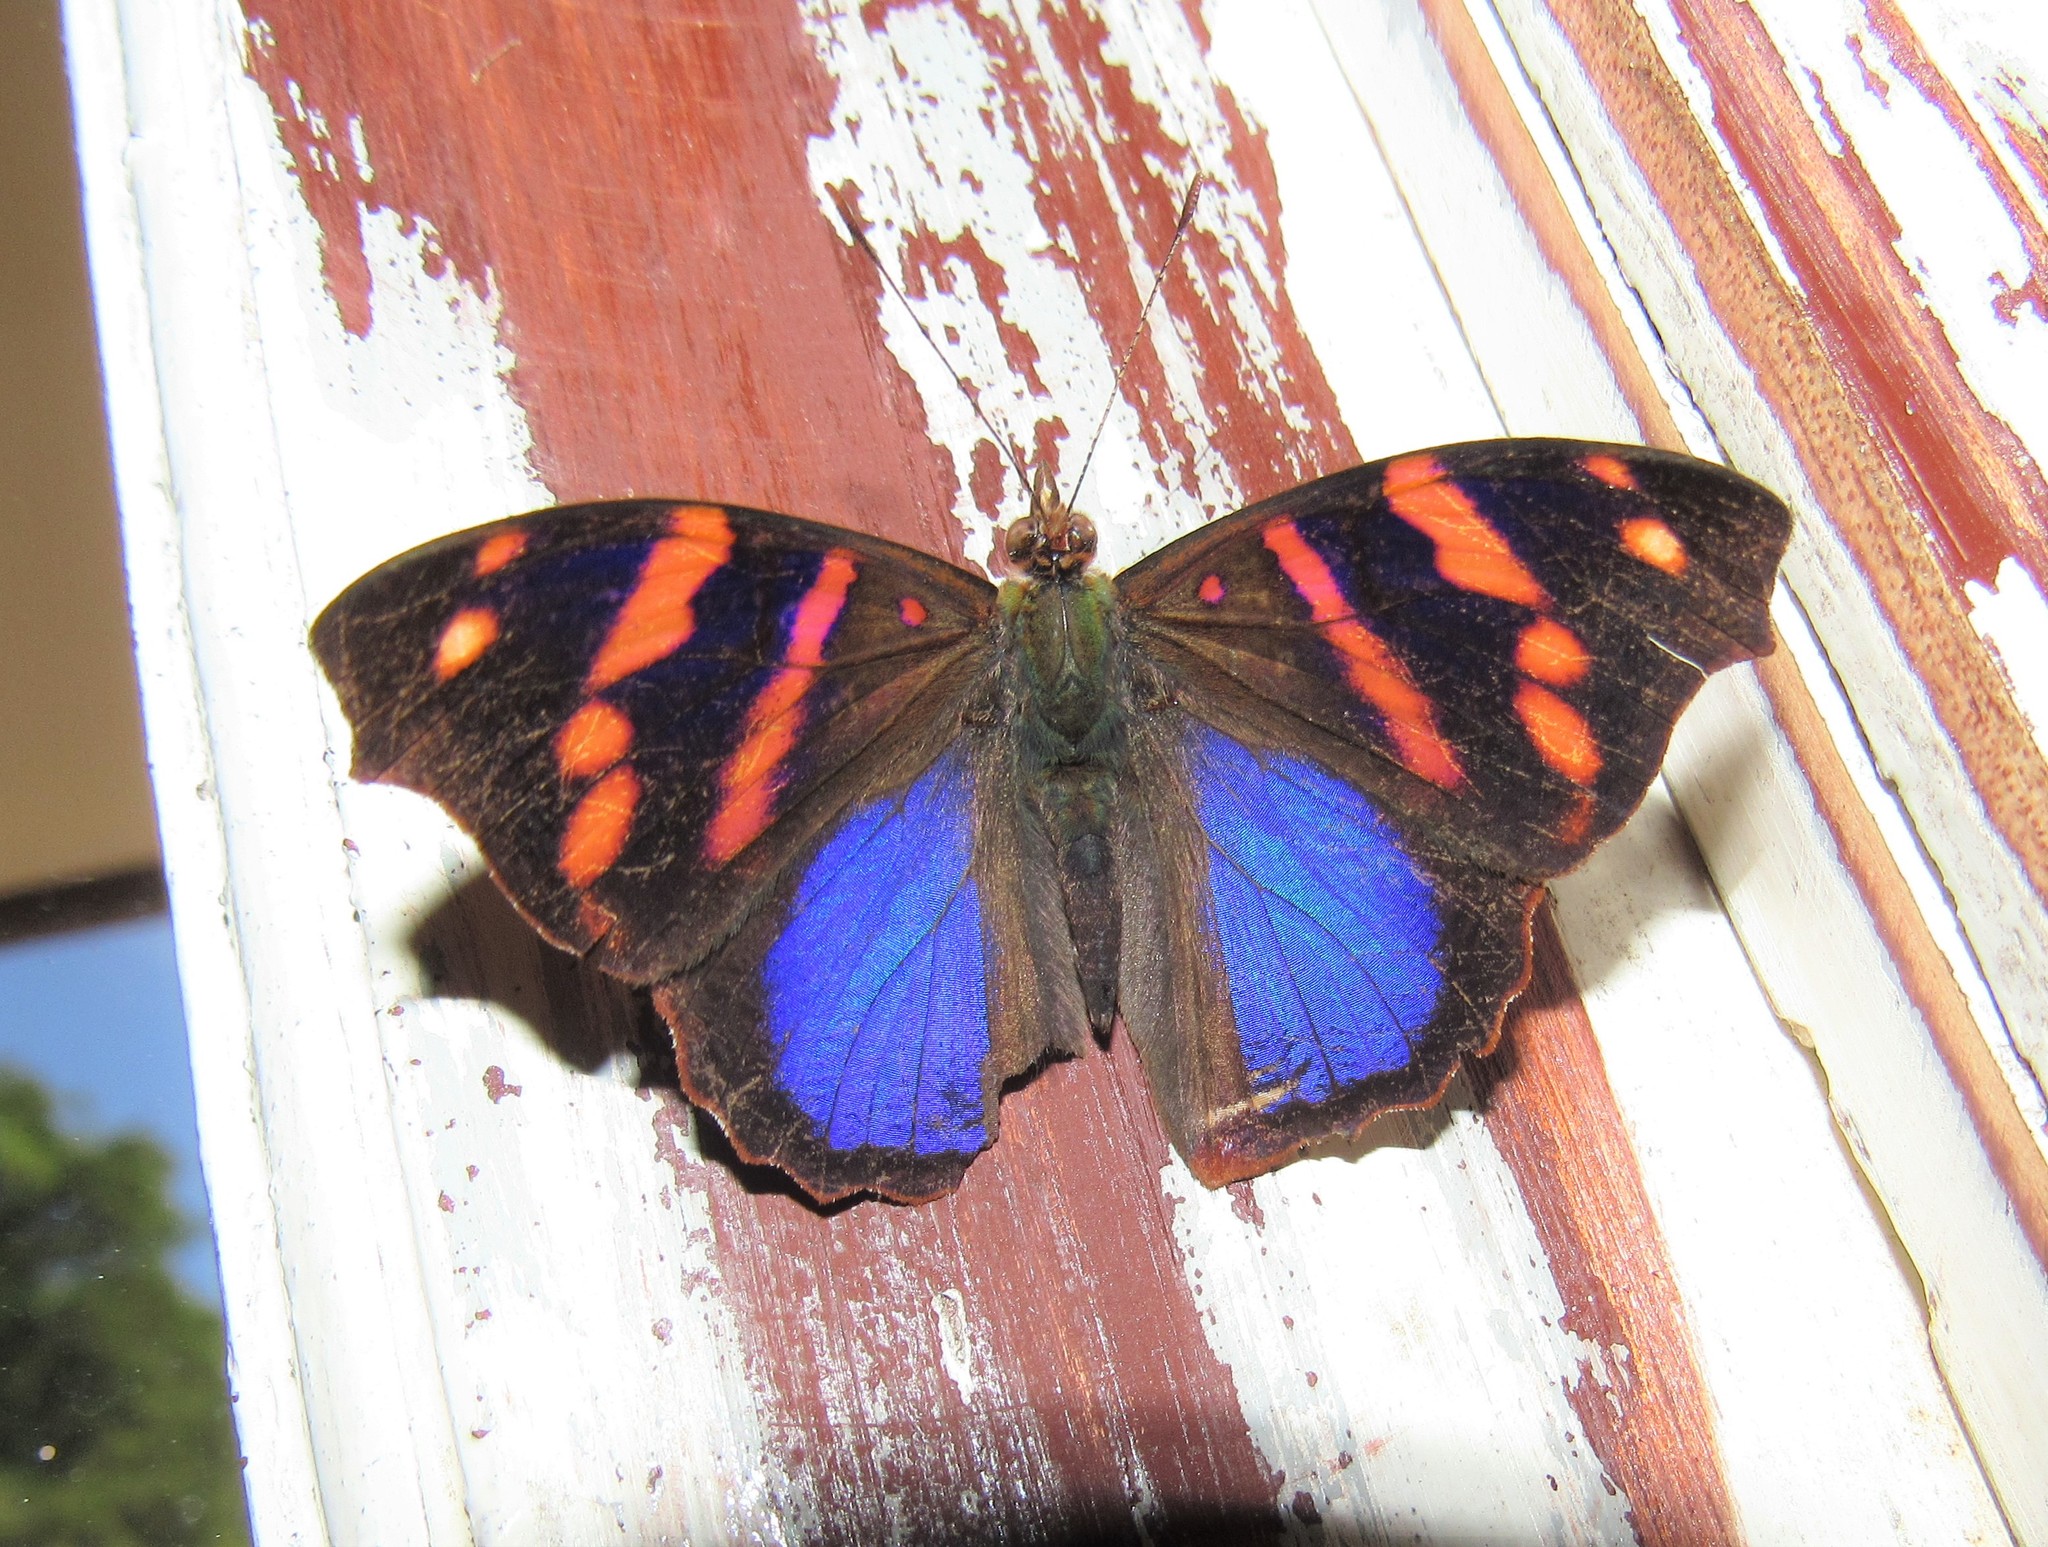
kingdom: Animalia
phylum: Arthropoda
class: Insecta
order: Lepidoptera
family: Nymphalidae
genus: Epiphile
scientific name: Epiphile orea
